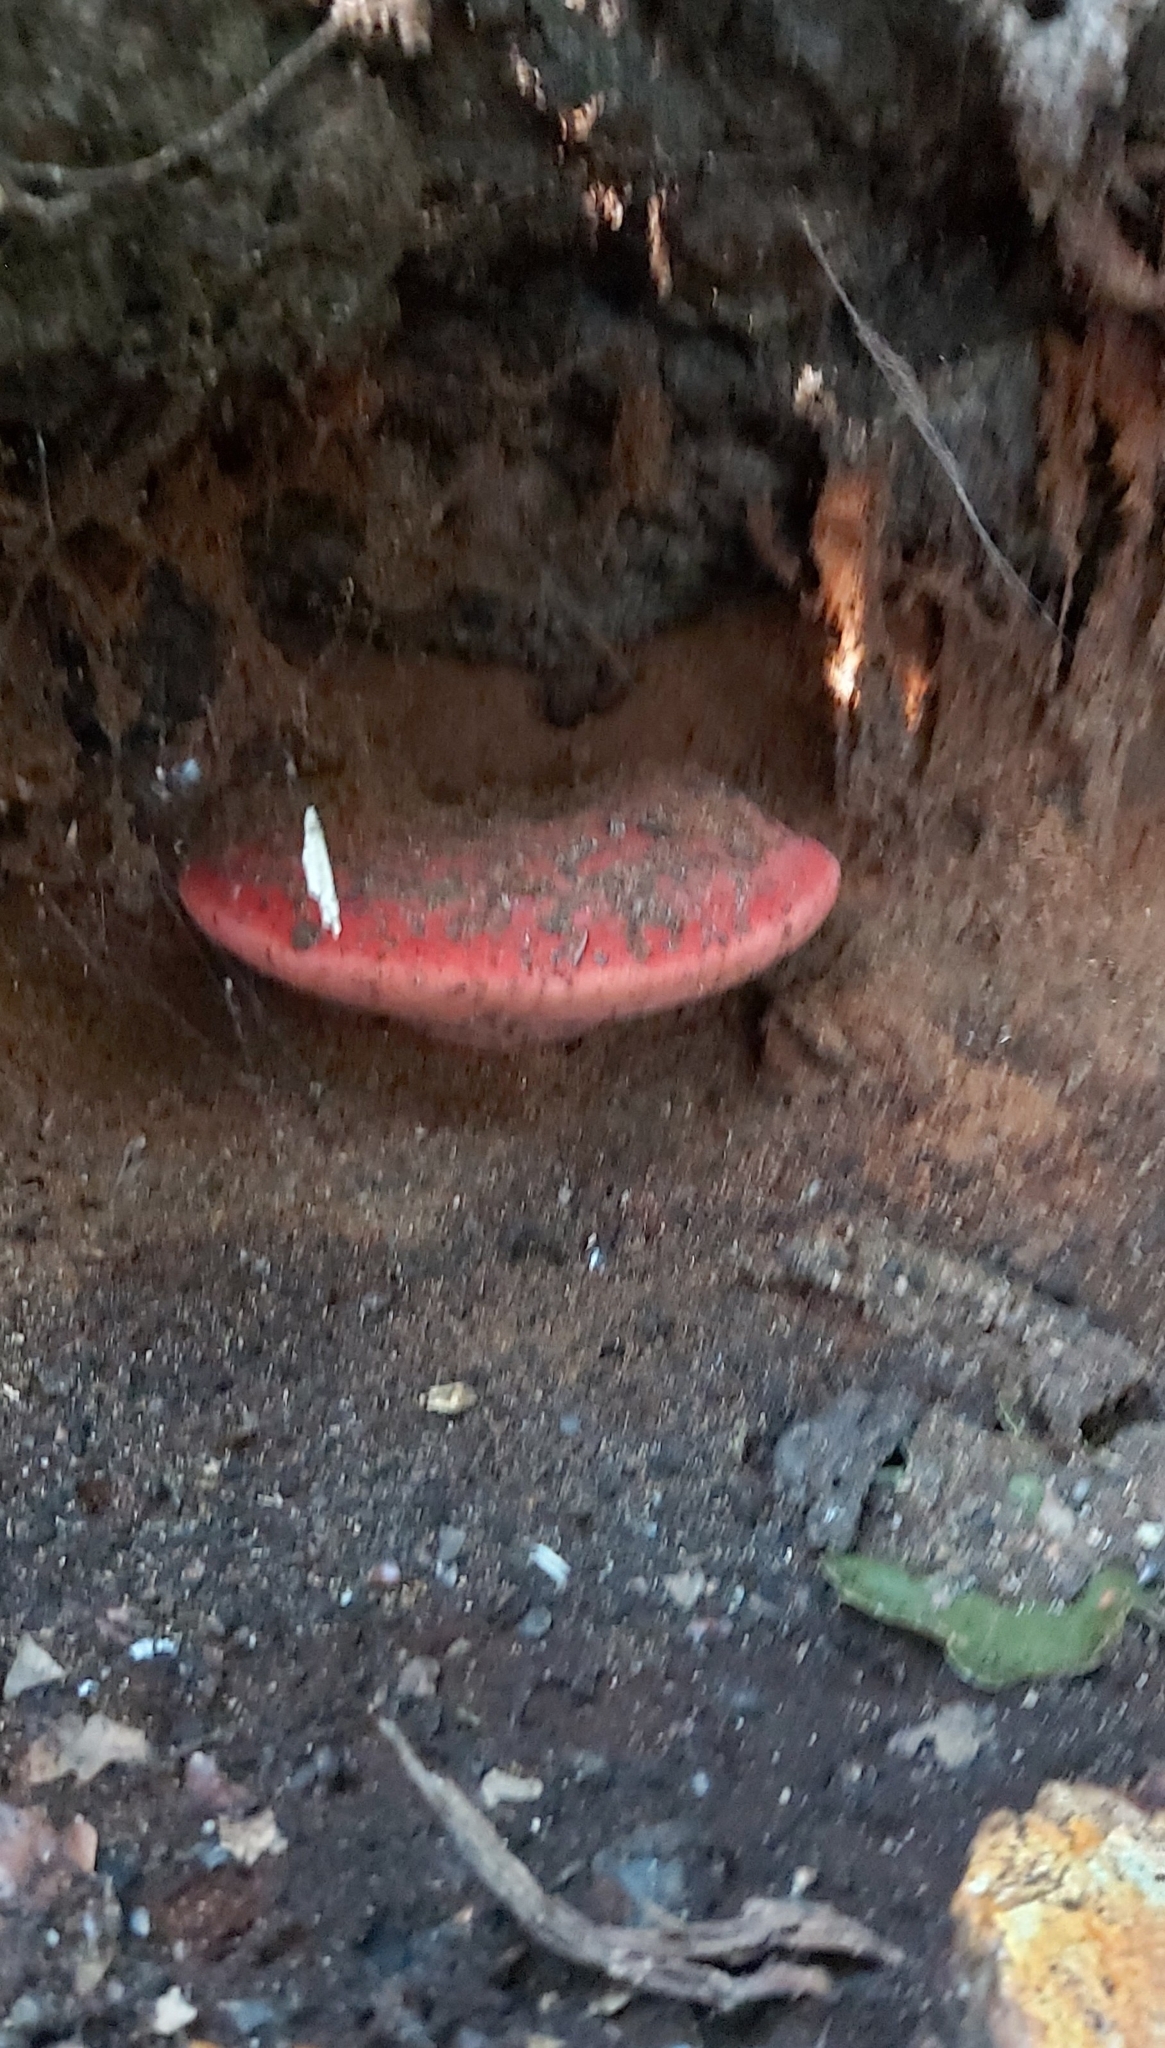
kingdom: Fungi
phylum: Basidiomycota
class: Agaricomycetes
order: Agaricales
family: Fistulinaceae
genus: Fistulina
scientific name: Fistulina hepatica
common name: Beef-steak fungus
